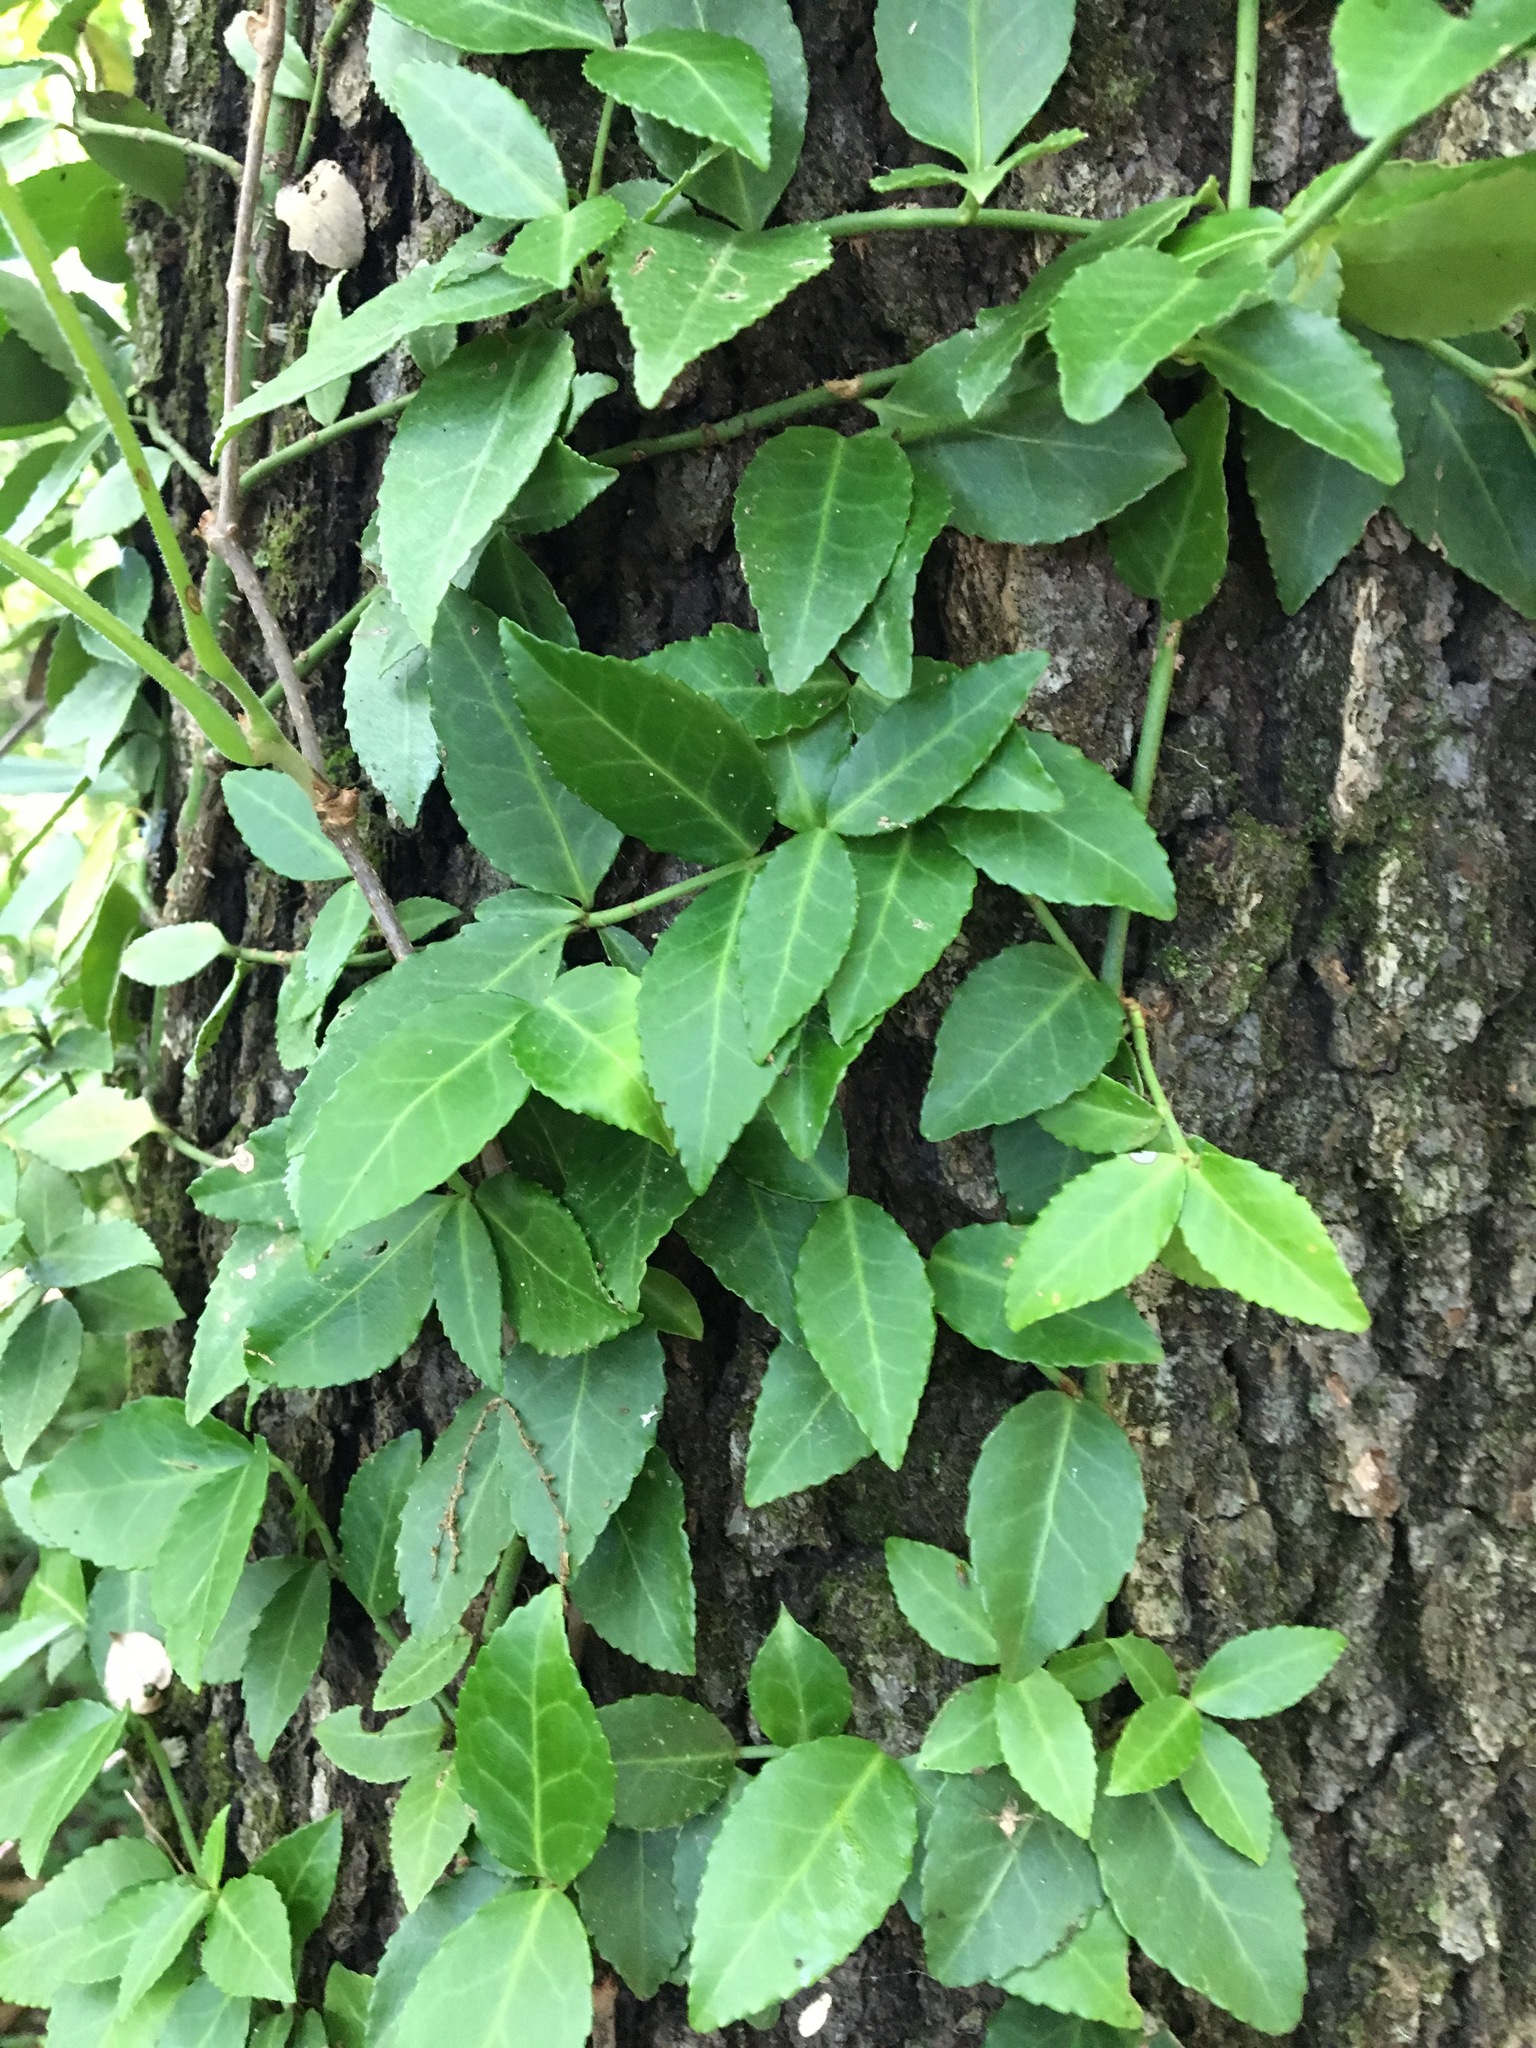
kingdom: Plantae
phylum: Tracheophyta
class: Magnoliopsida
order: Celastrales
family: Celastraceae
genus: Euonymus
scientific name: Euonymus fortunei
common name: Climbing euonymus
